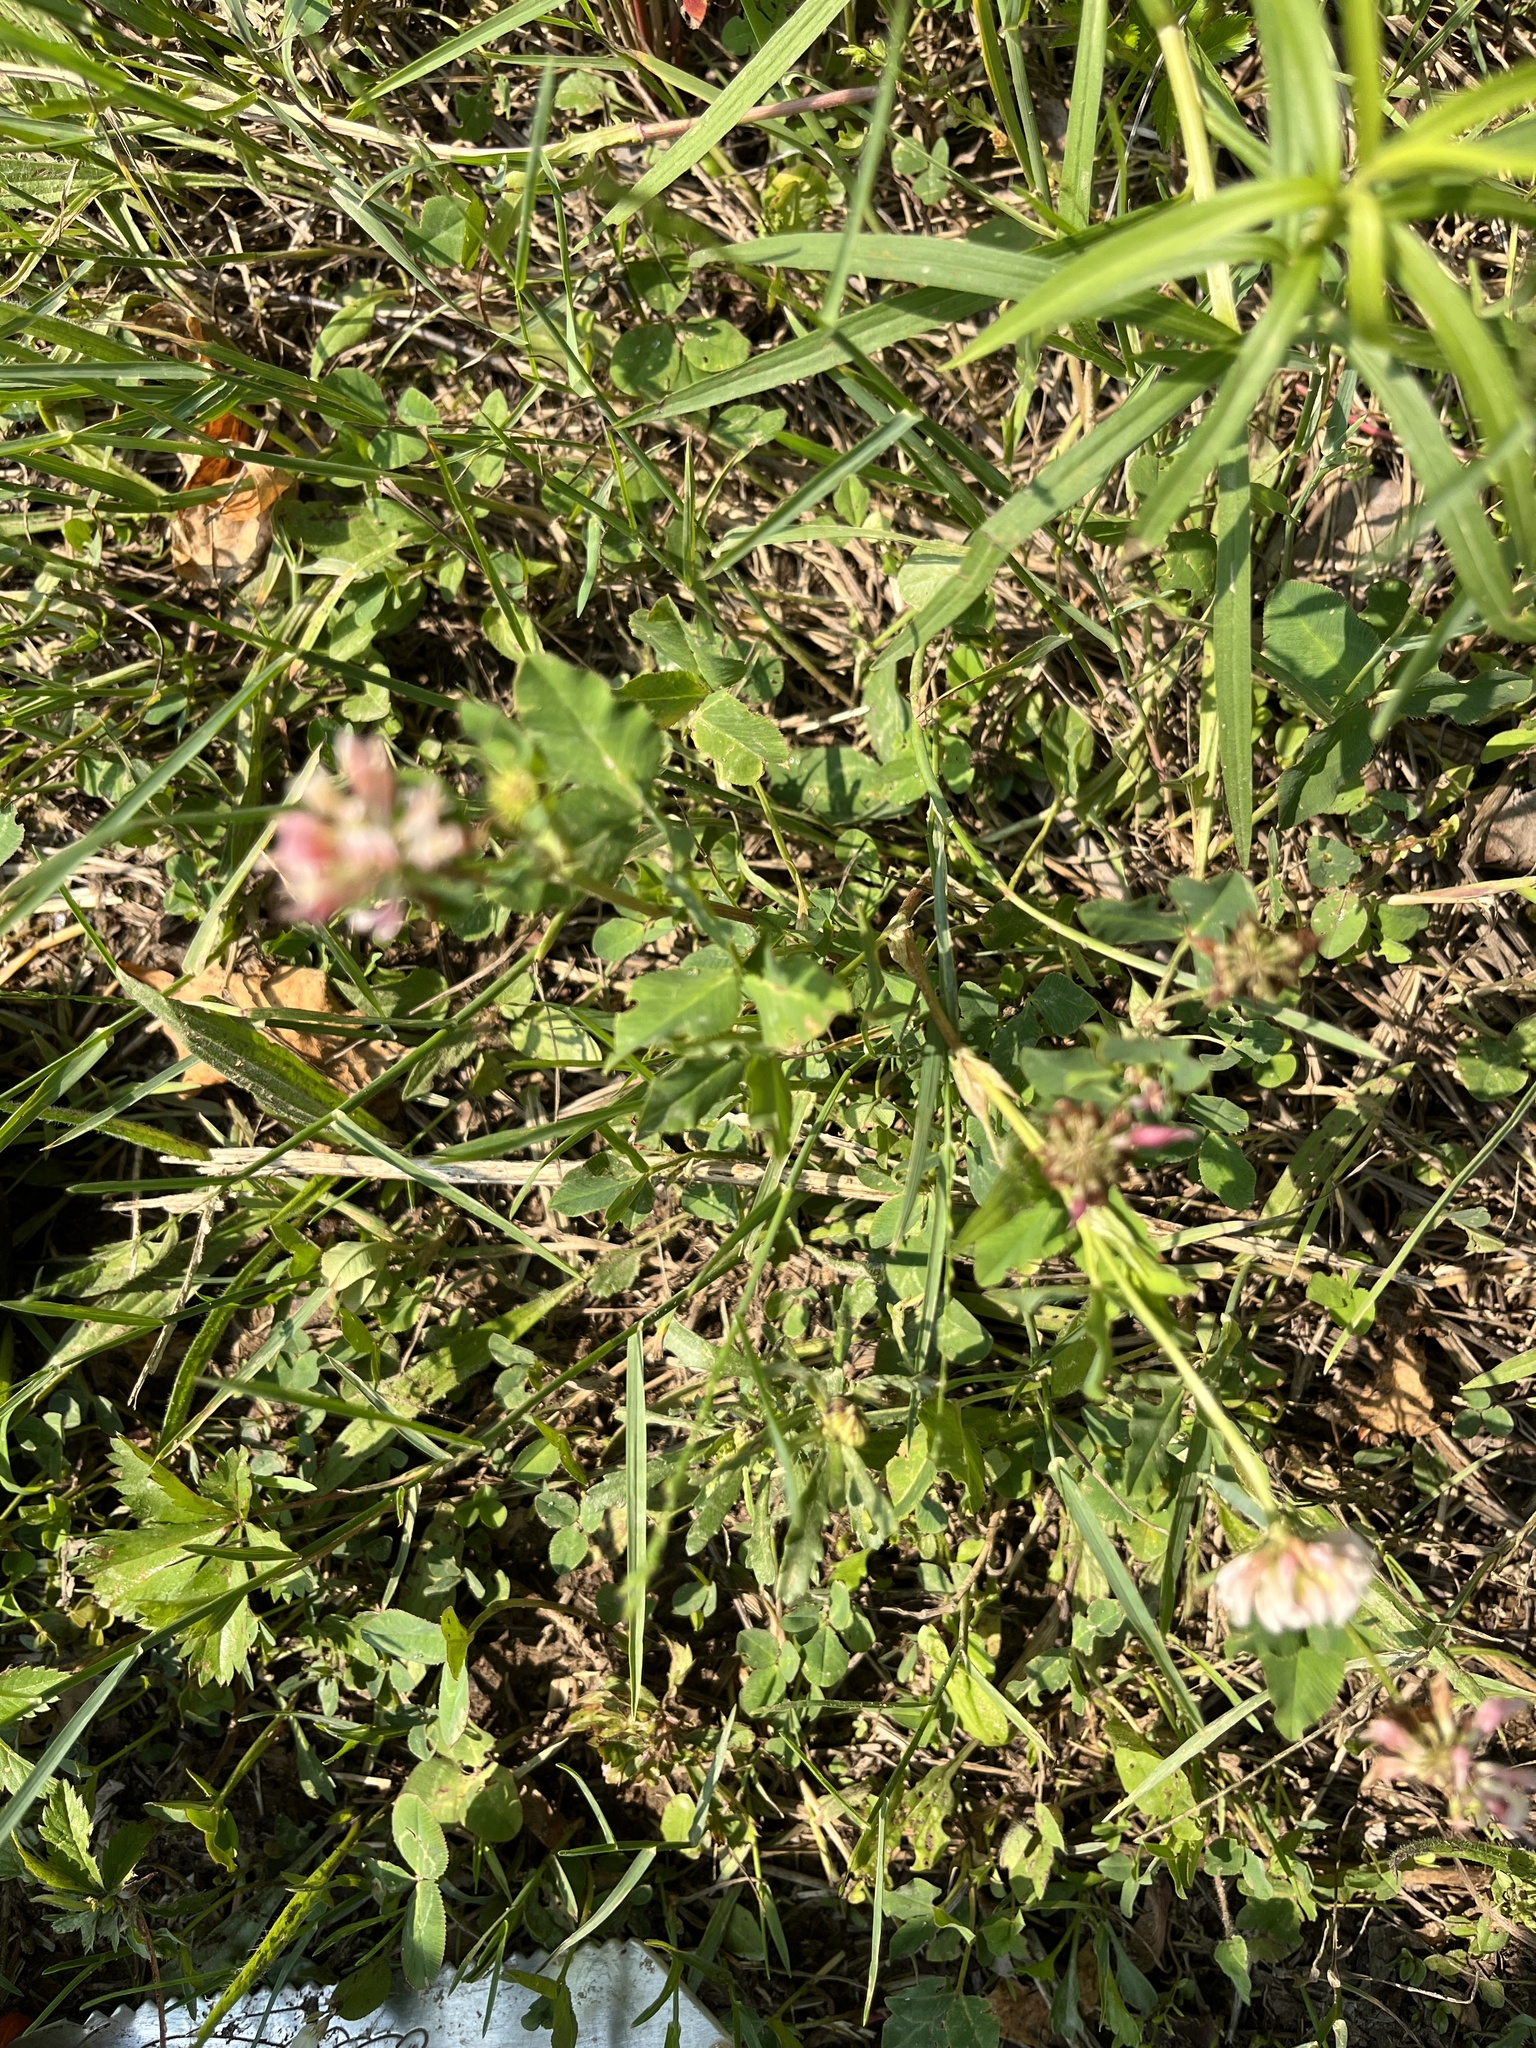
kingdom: Plantae
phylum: Tracheophyta
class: Magnoliopsida
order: Fabales
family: Fabaceae
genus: Trifolium
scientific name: Trifolium hybridum
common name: Alsike clover
